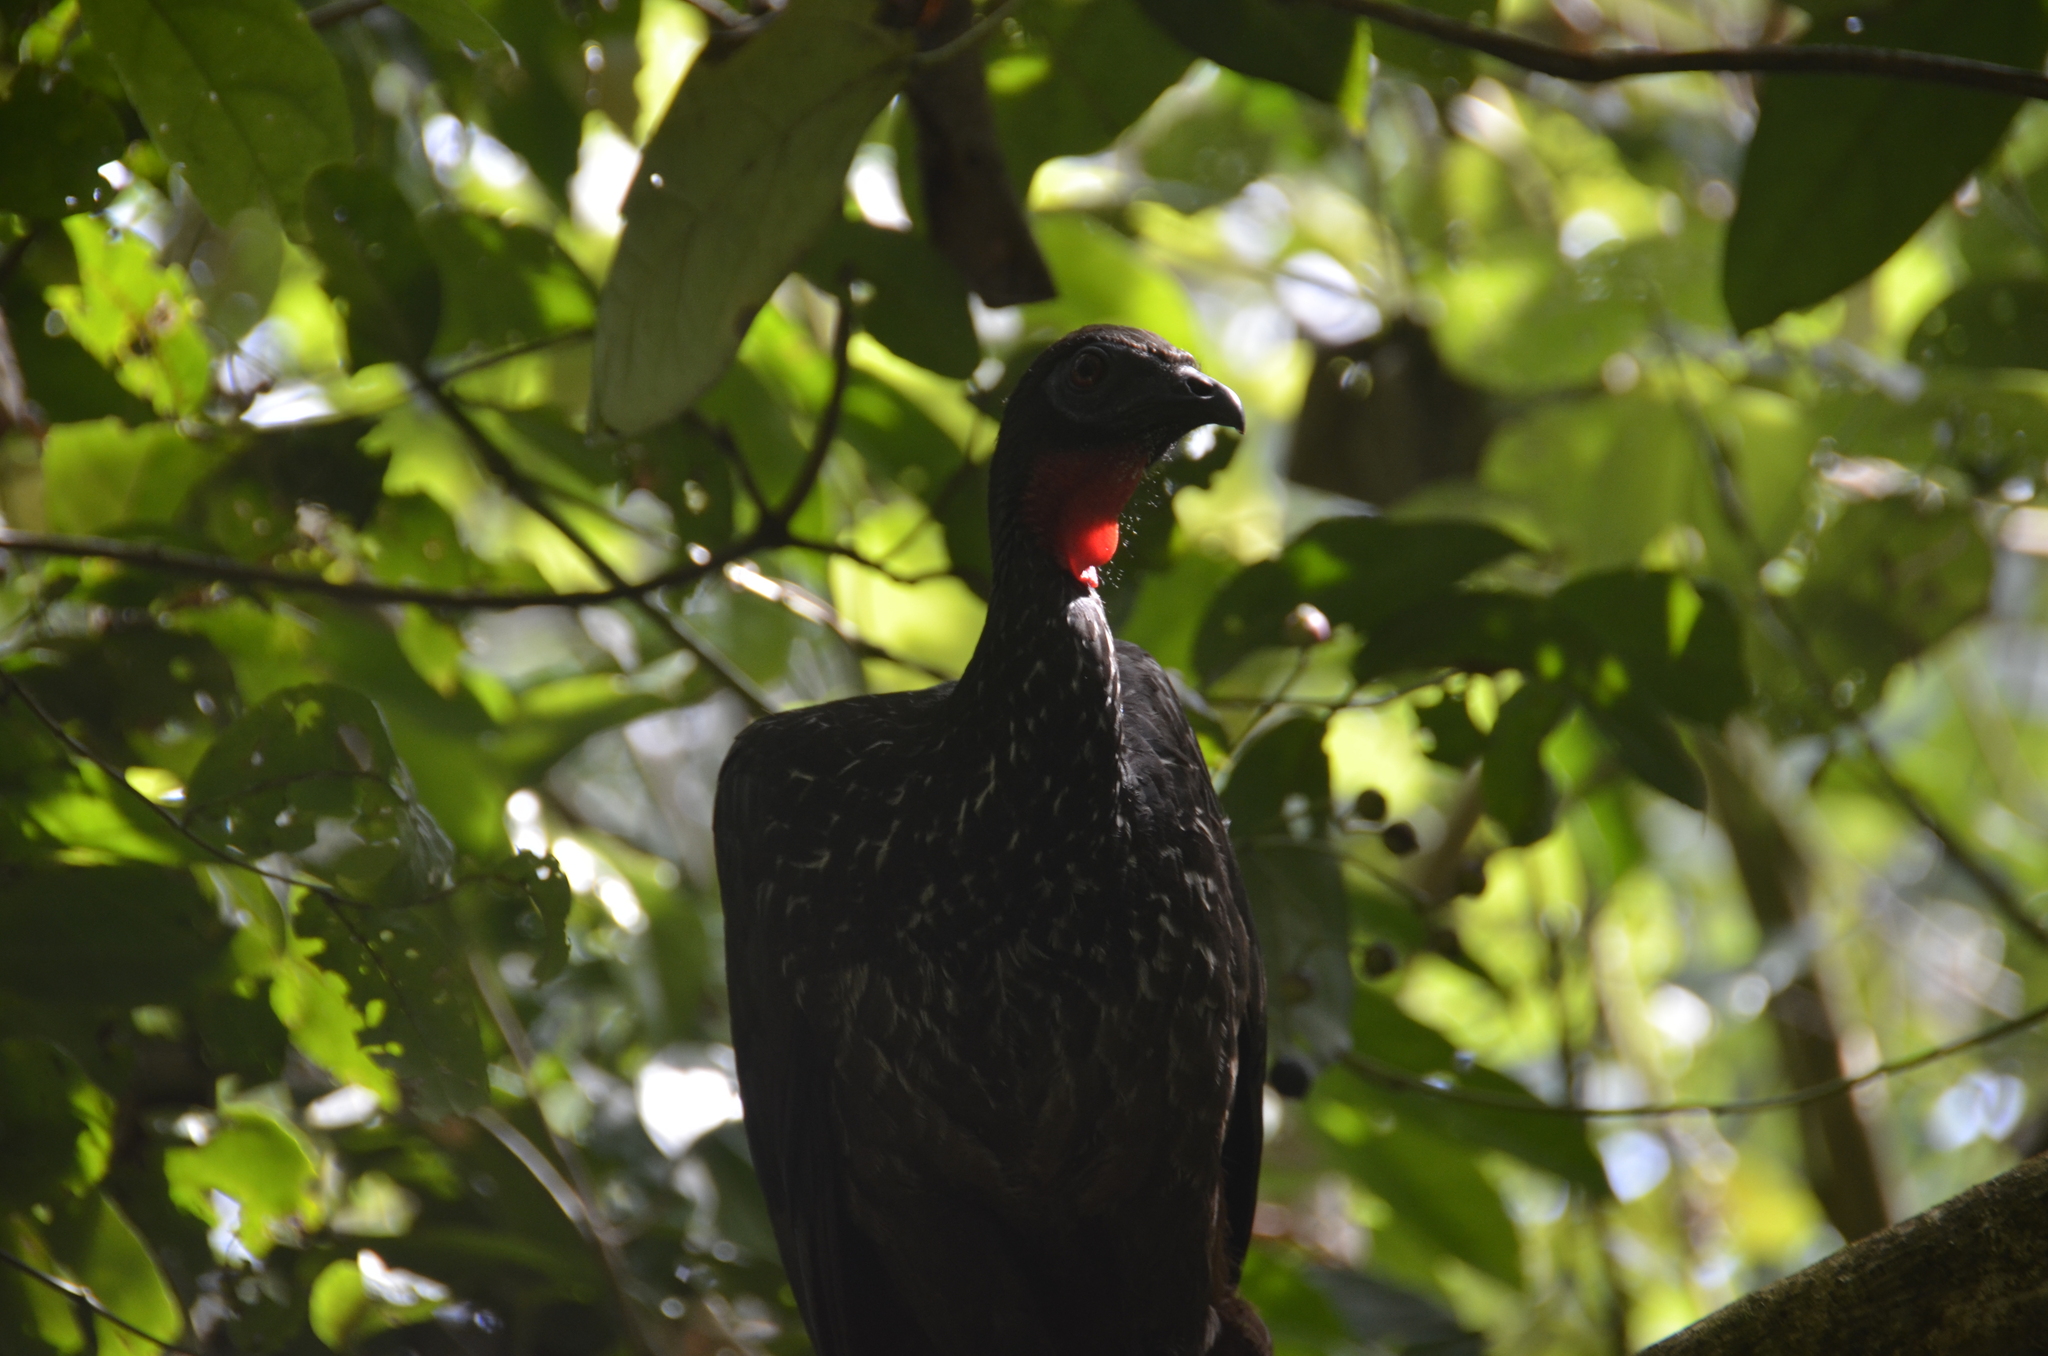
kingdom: Animalia
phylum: Chordata
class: Aves
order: Galliformes
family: Cracidae
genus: Penelope
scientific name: Penelope purpurascens
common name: Crested guan
